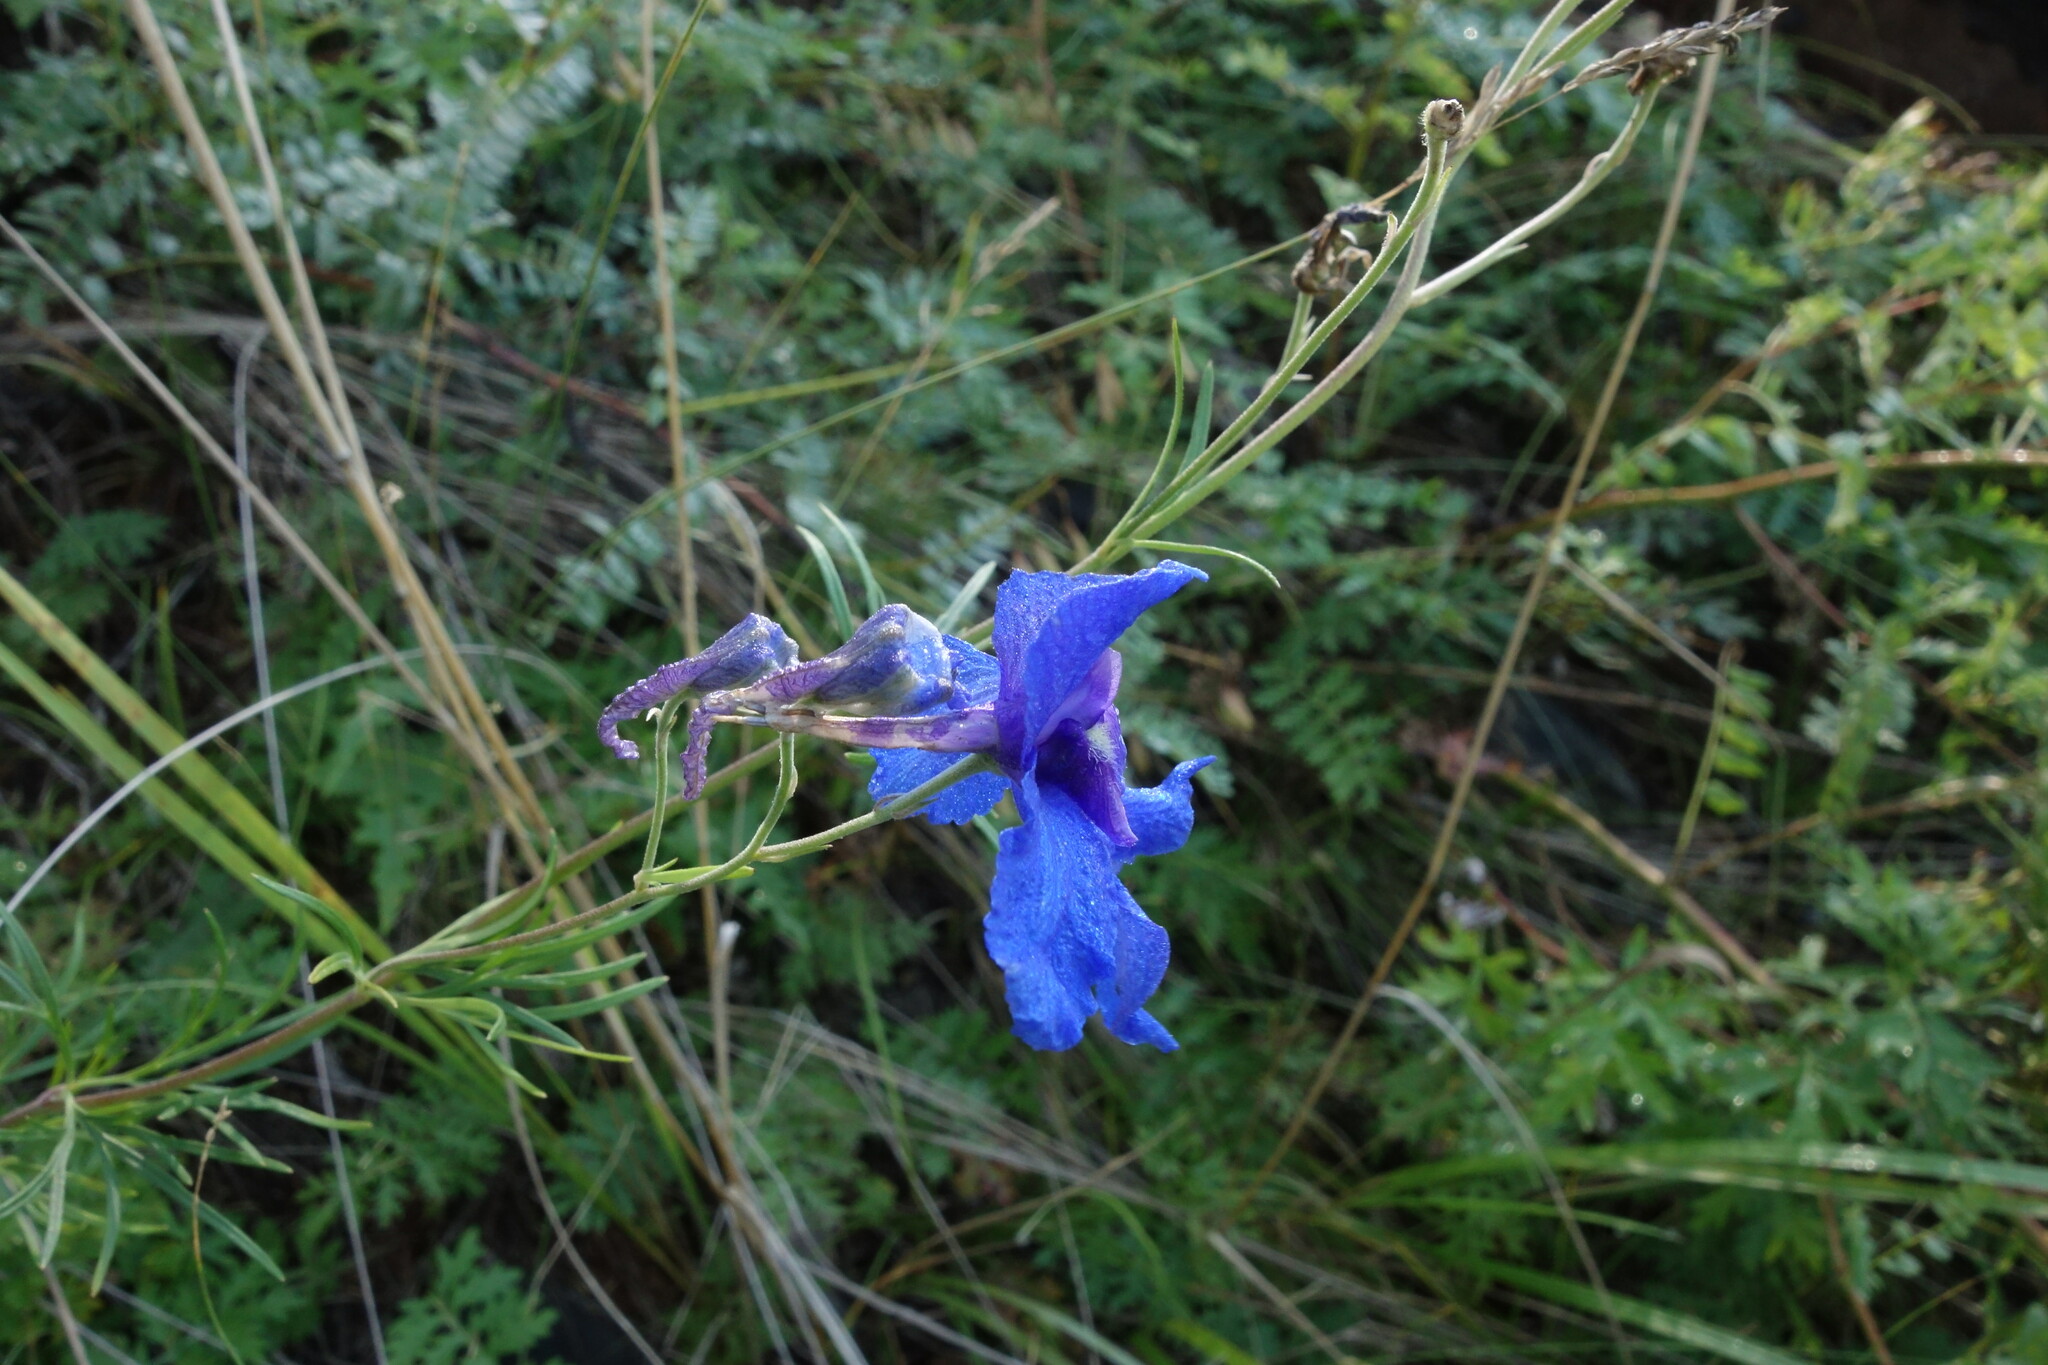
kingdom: Plantae
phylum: Tracheophyta
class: Magnoliopsida
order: Ranunculales
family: Ranunculaceae
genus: Delphinium
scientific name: Delphinium grandiflorum
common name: Siberian larkspur
